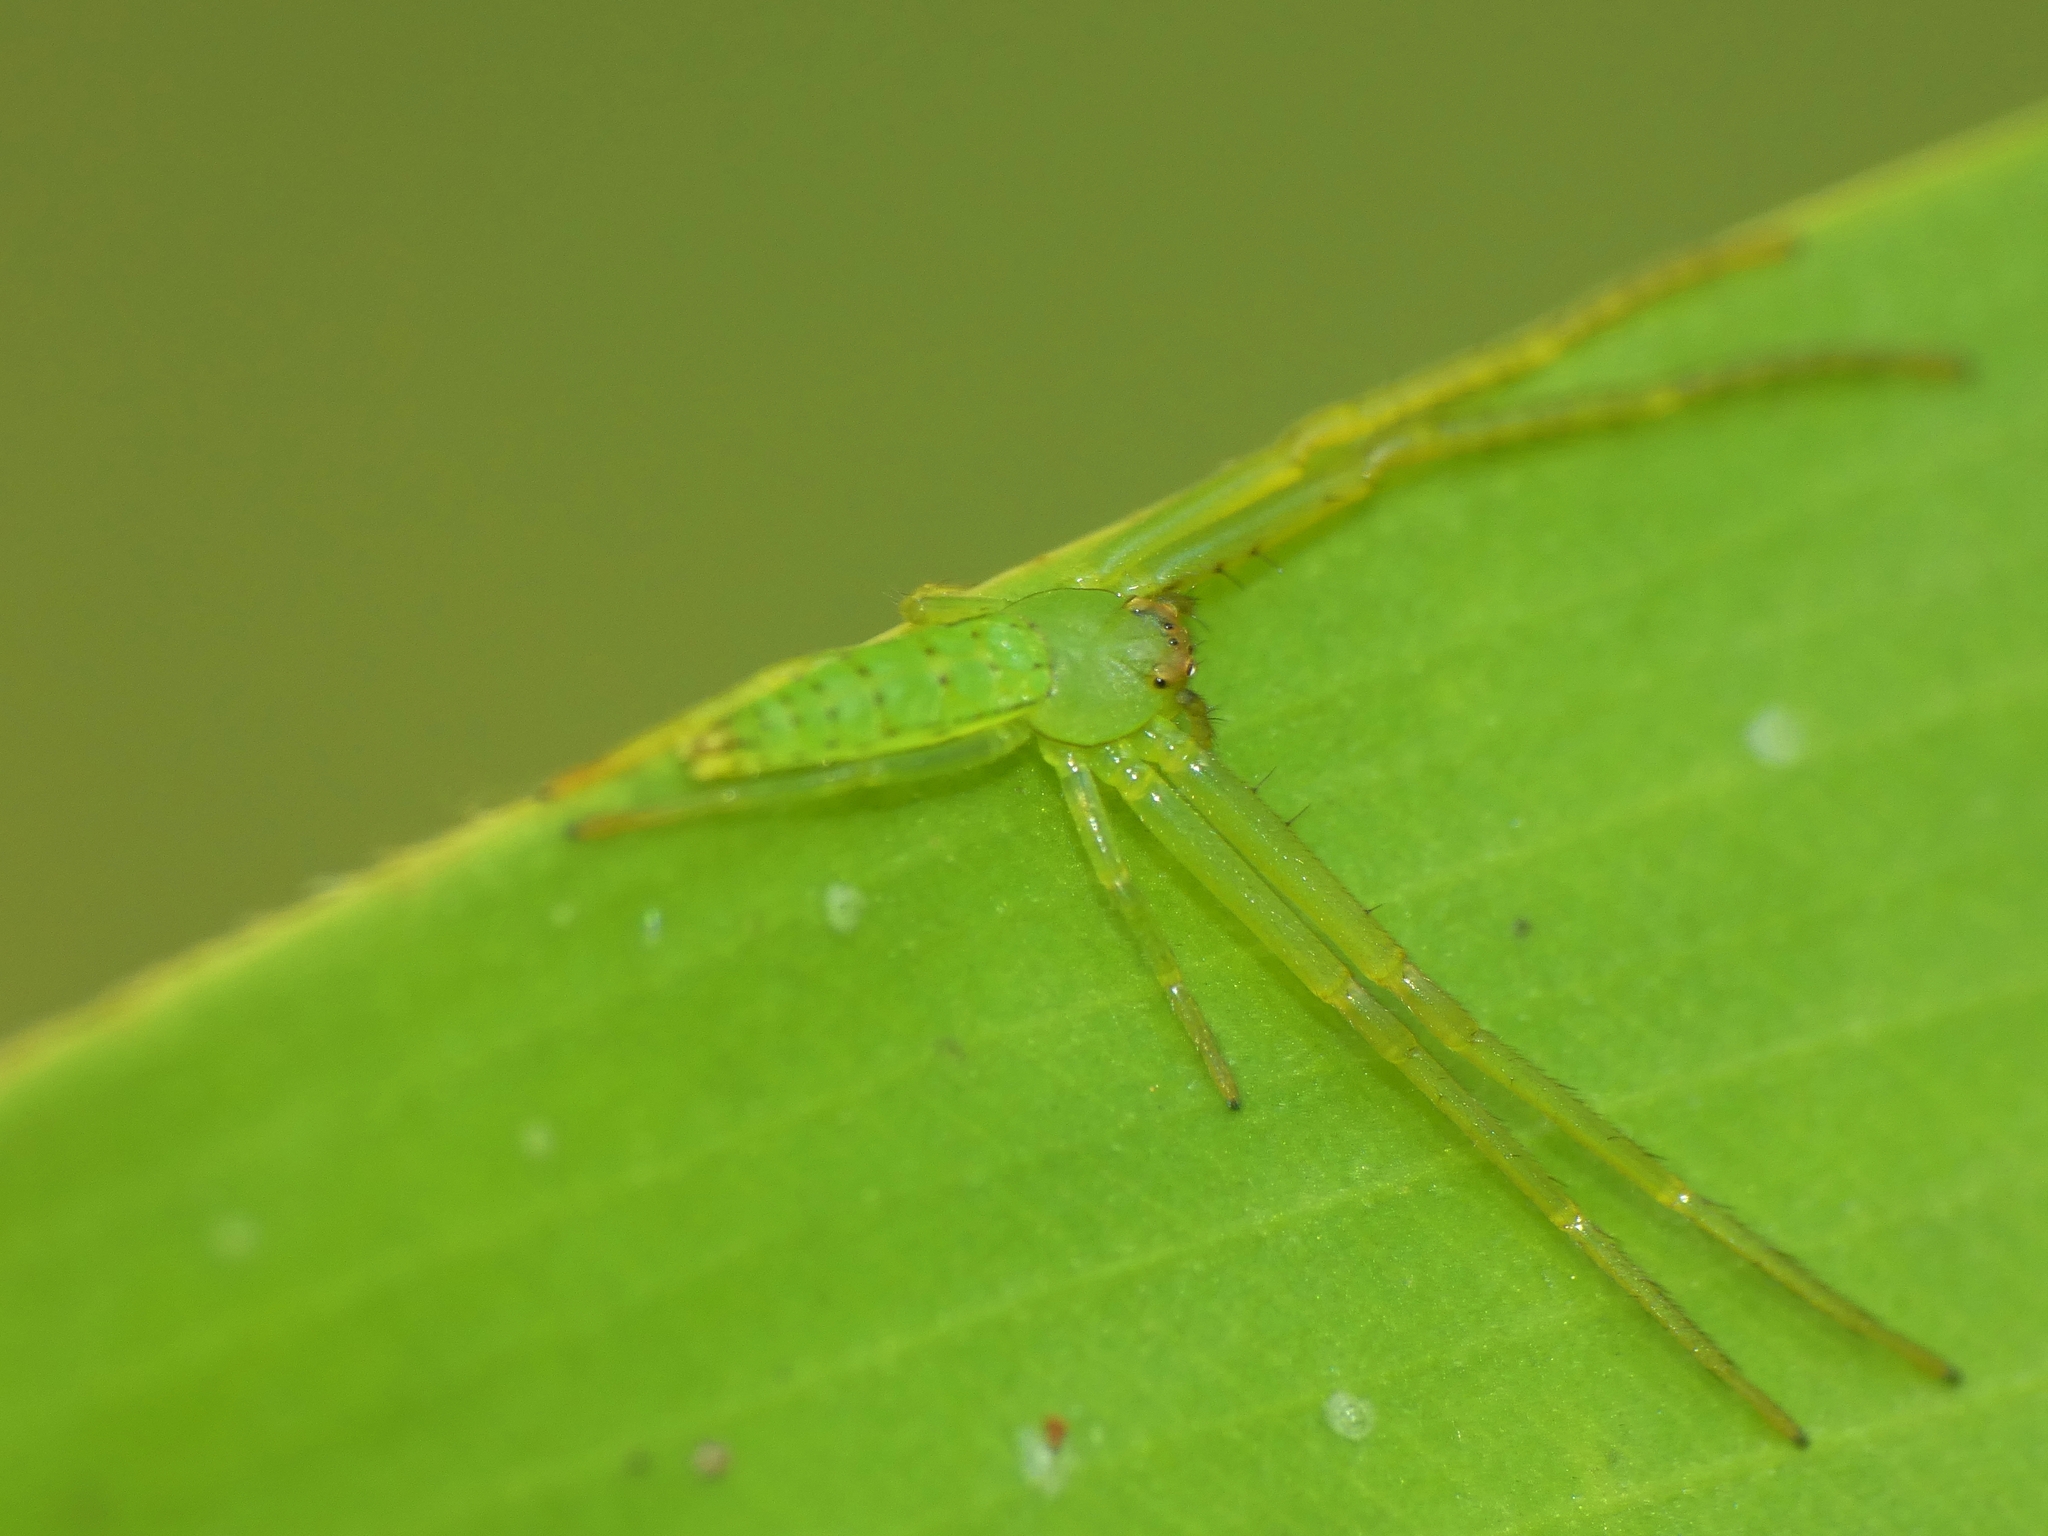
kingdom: Animalia
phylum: Arthropoda
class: Arachnida
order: Araneae
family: Thomisidae
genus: Cetratus
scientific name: Cetratus rubropunctatus
